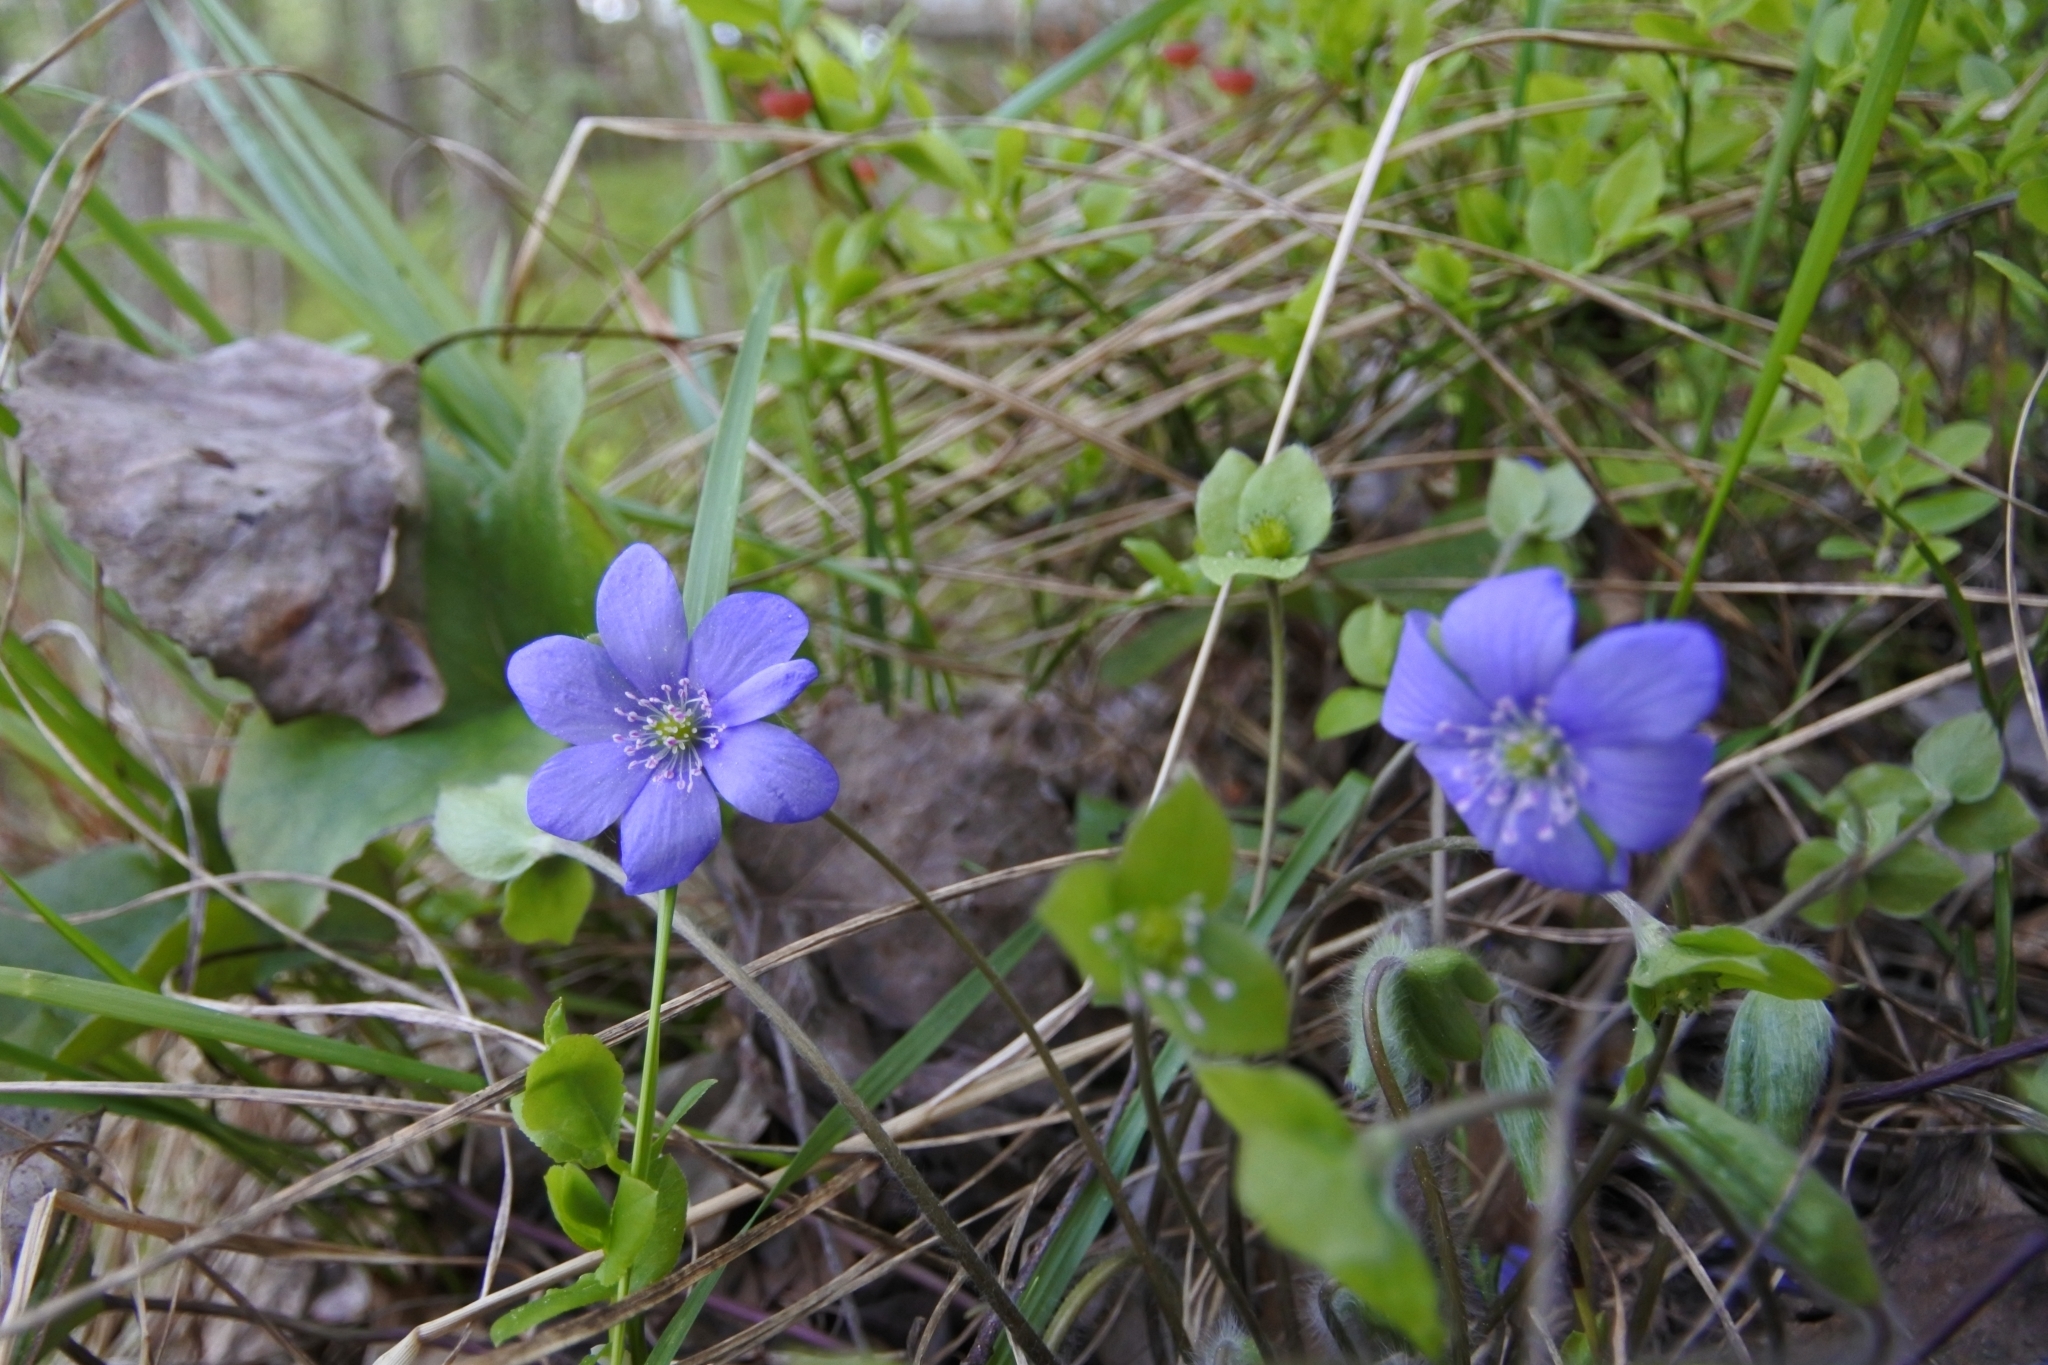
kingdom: Plantae
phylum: Tracheophyta
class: Magnoliopsida
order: Ranunculales
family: Ranunculaceae
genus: Hepatica
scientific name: Hepatica nobilis
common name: Liverleaf
